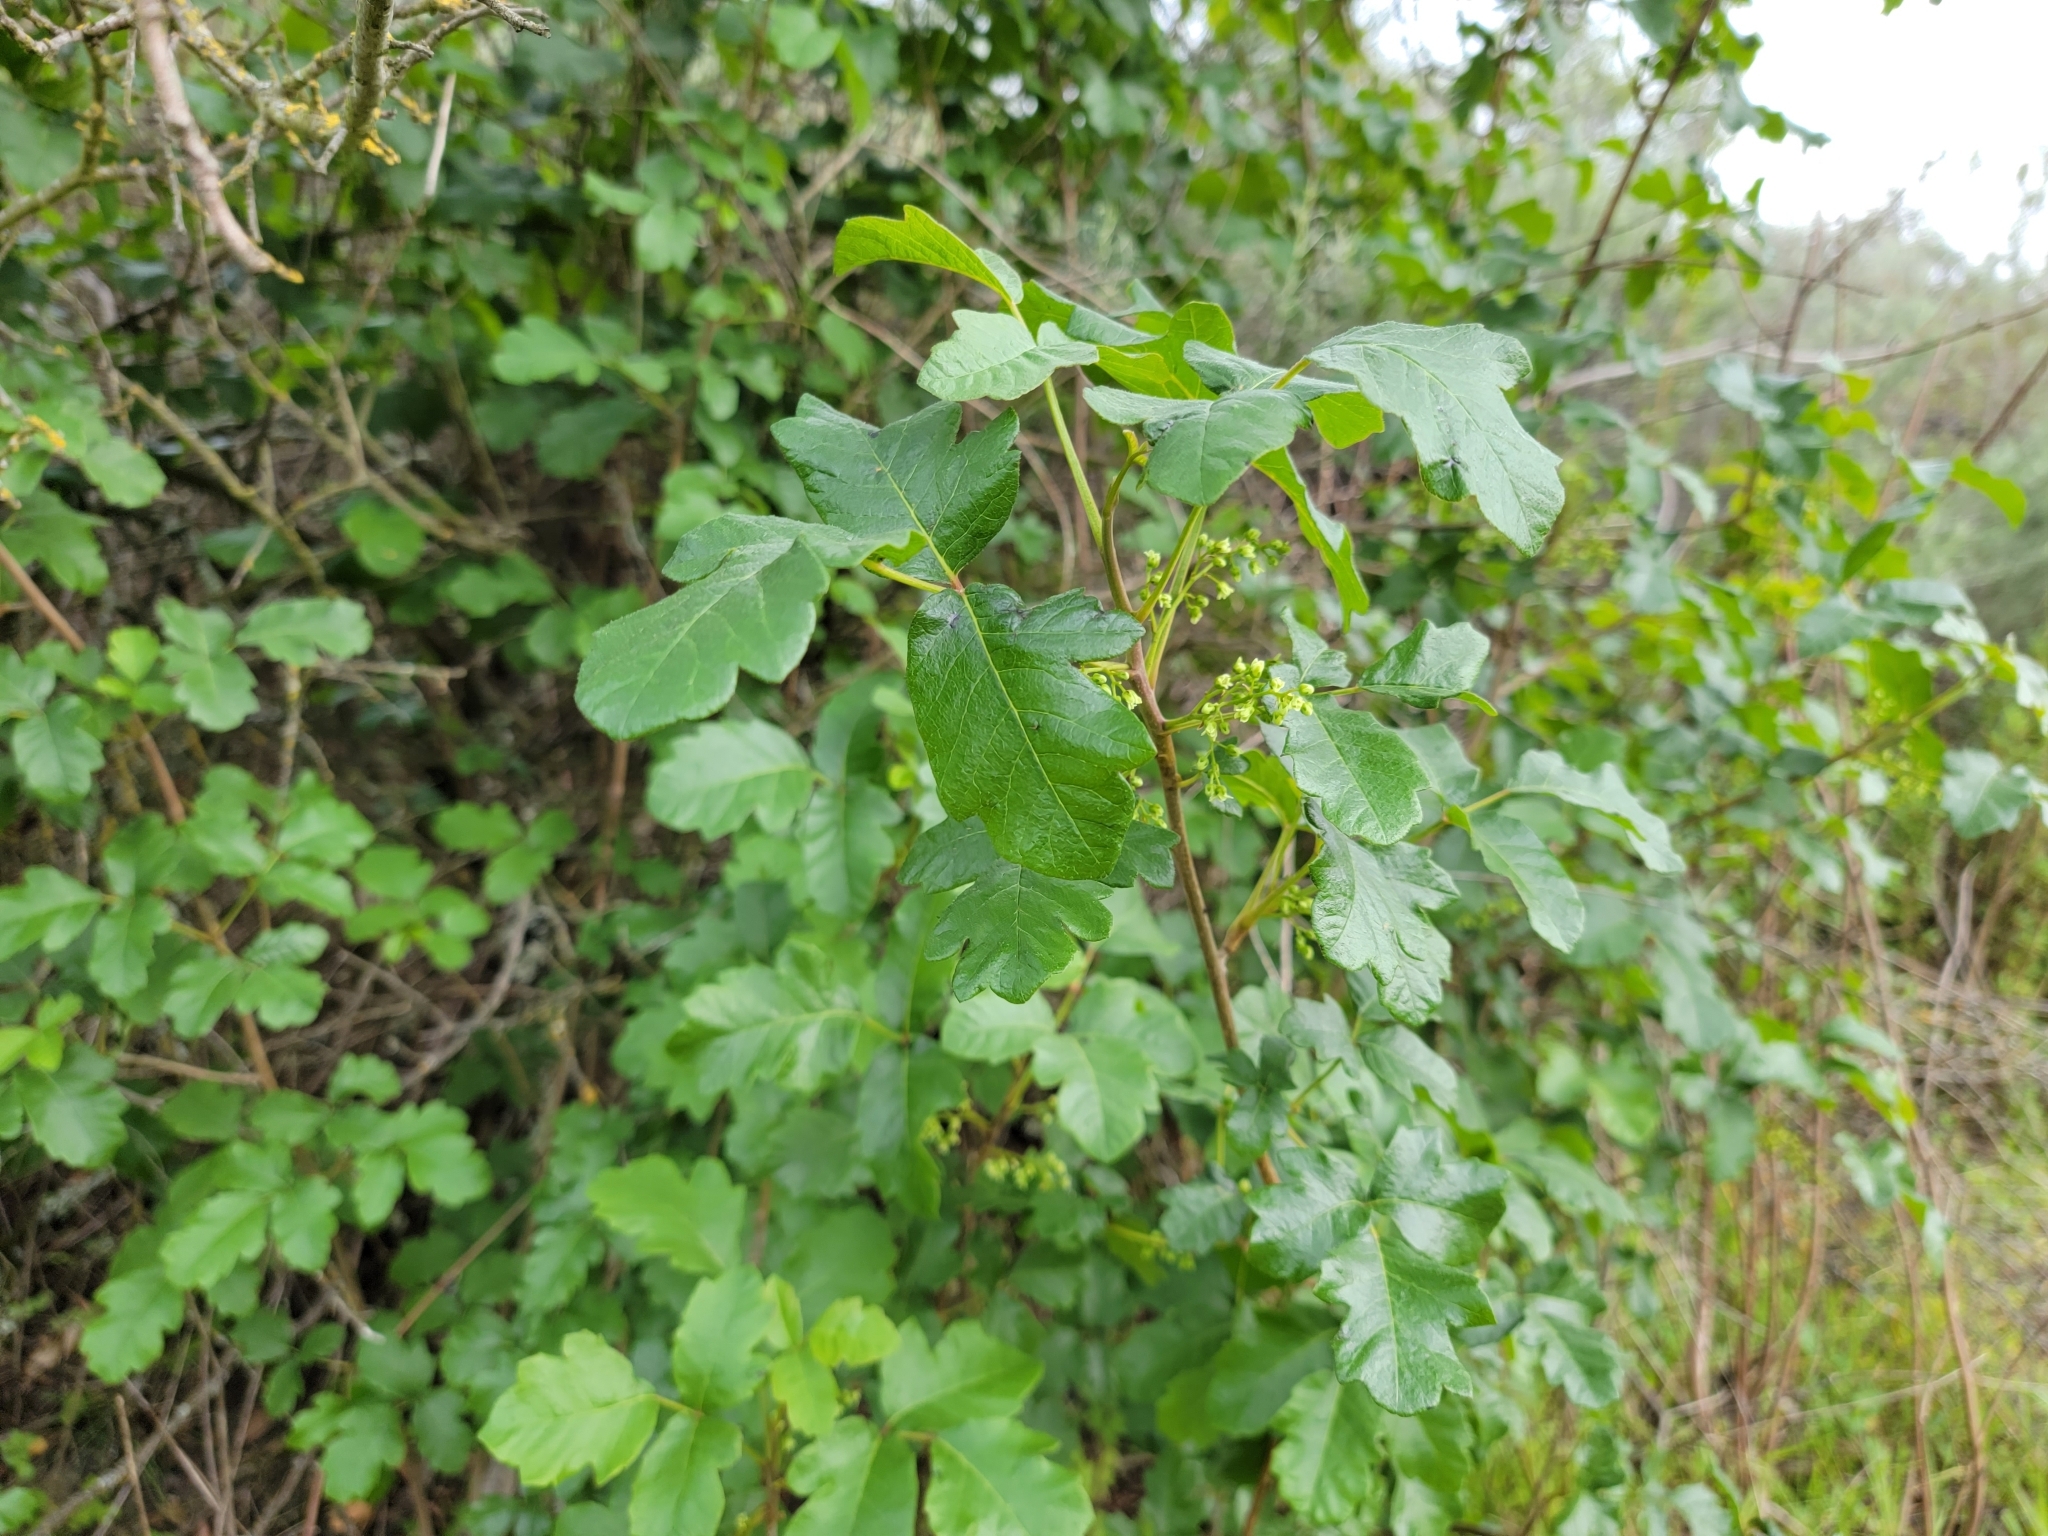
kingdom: Plantae
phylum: Tracheophyta
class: Magnoliopsida
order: Sapindales
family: Anacardiaceae
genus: Toxicodendron
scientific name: Toxicodendron diversilobum
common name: Pacific poison-oak
